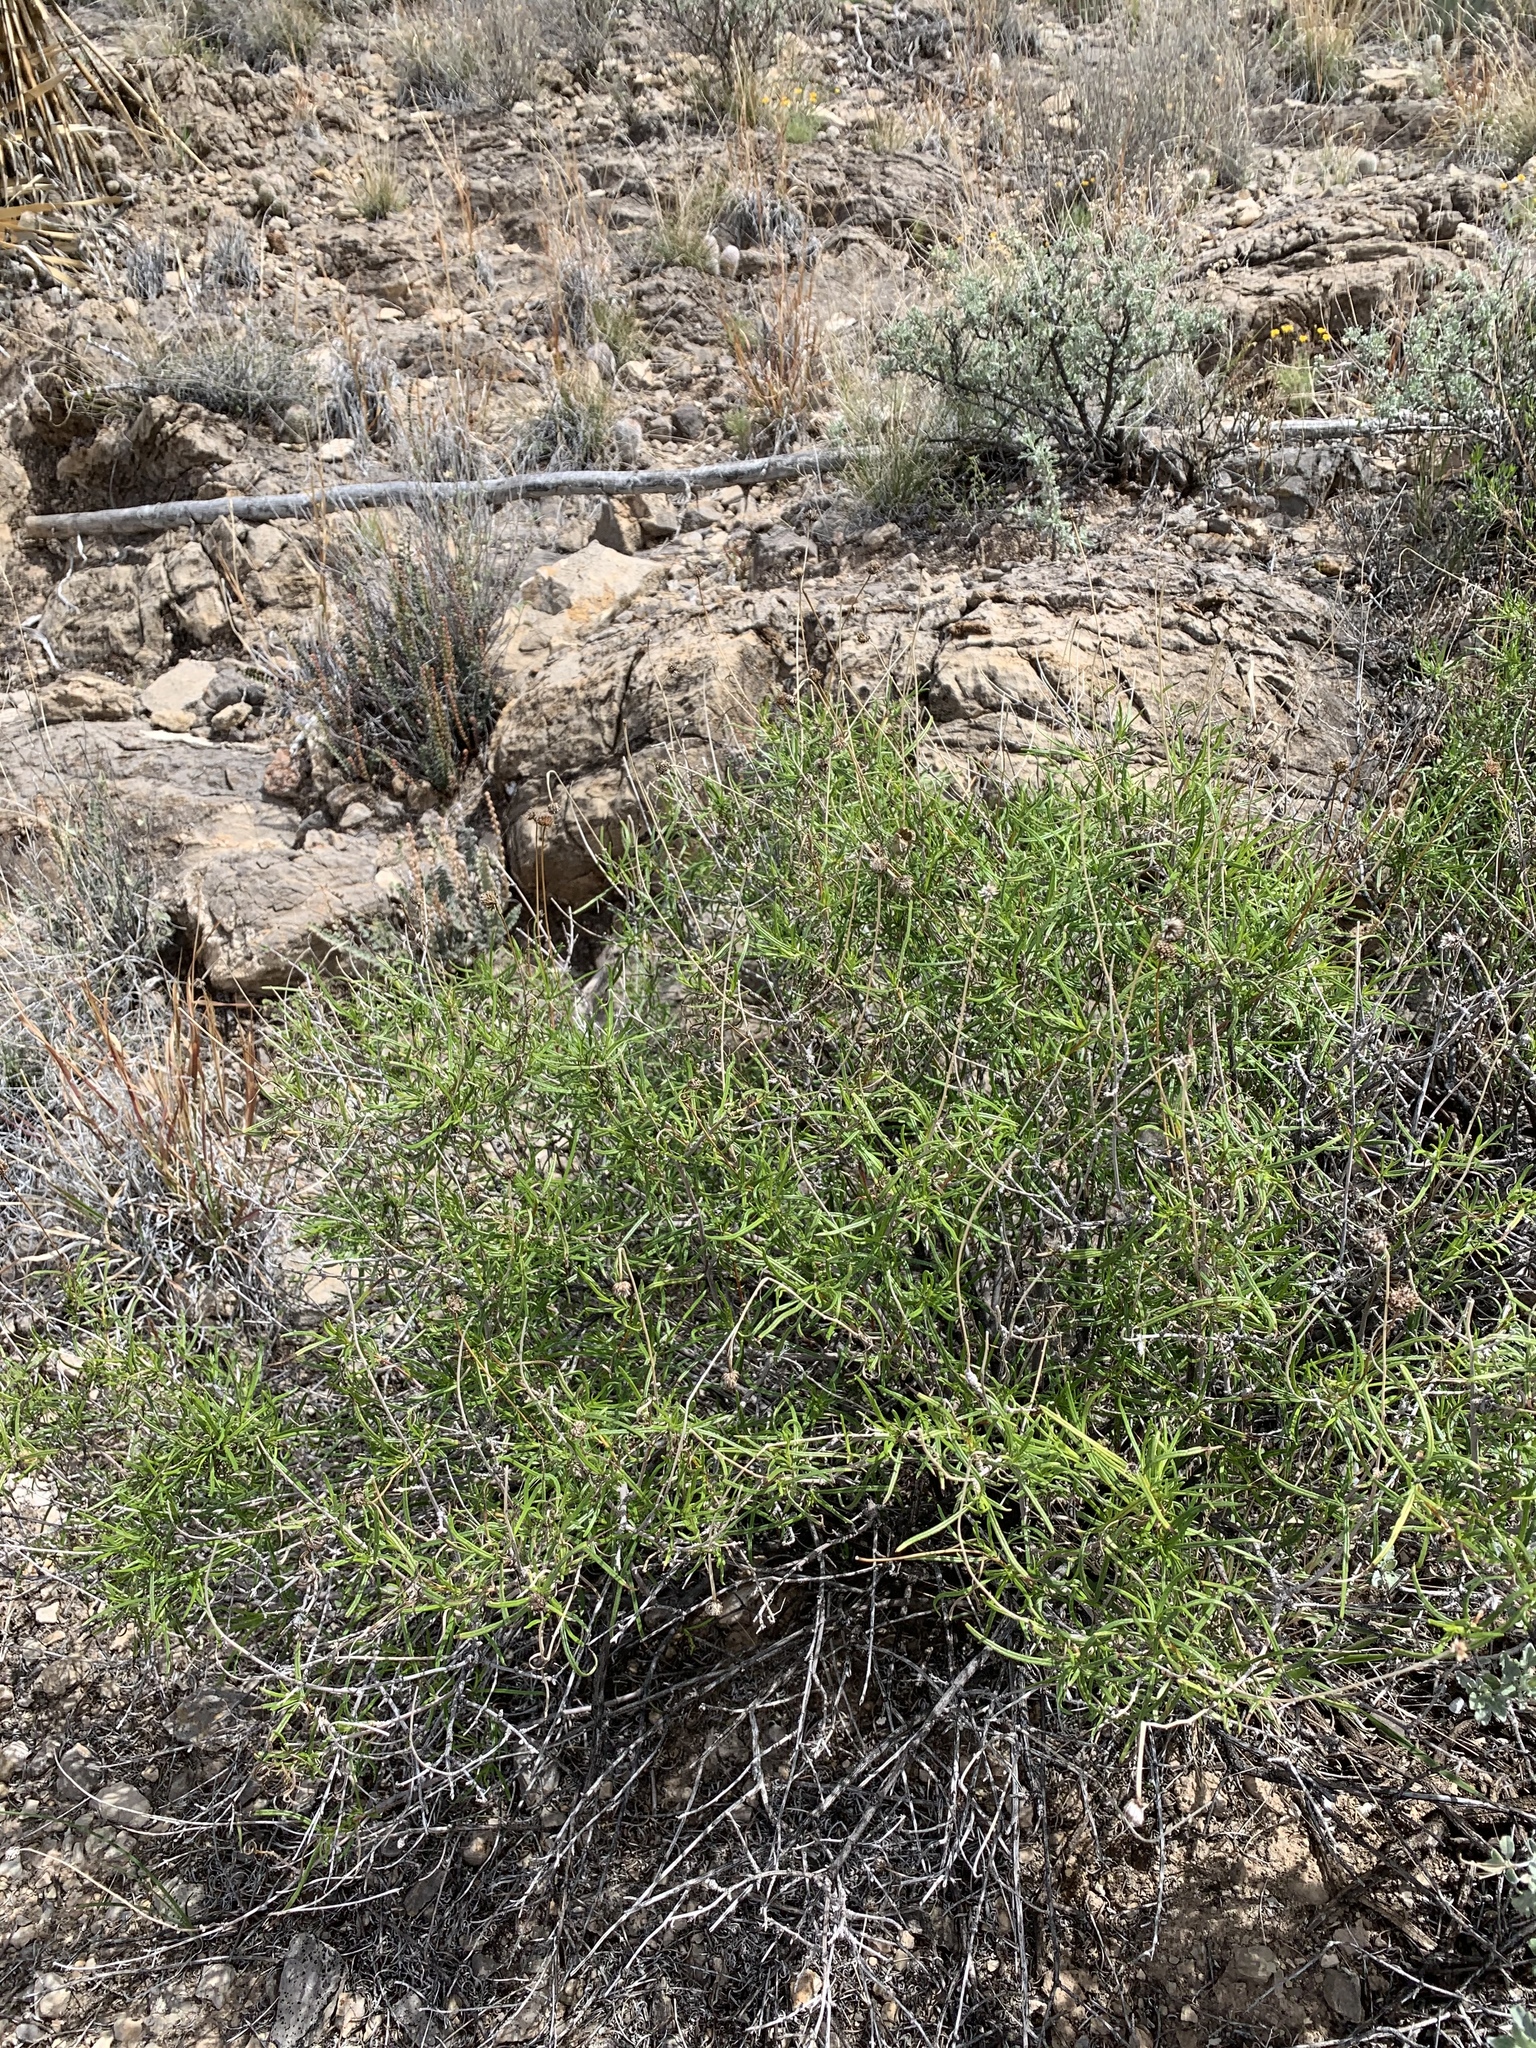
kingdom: Plantae
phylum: Tracheophyta
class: Magnoliopsida
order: Asterales
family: Asteraceae
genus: Sidneya
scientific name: Sidneya tenuifolia
